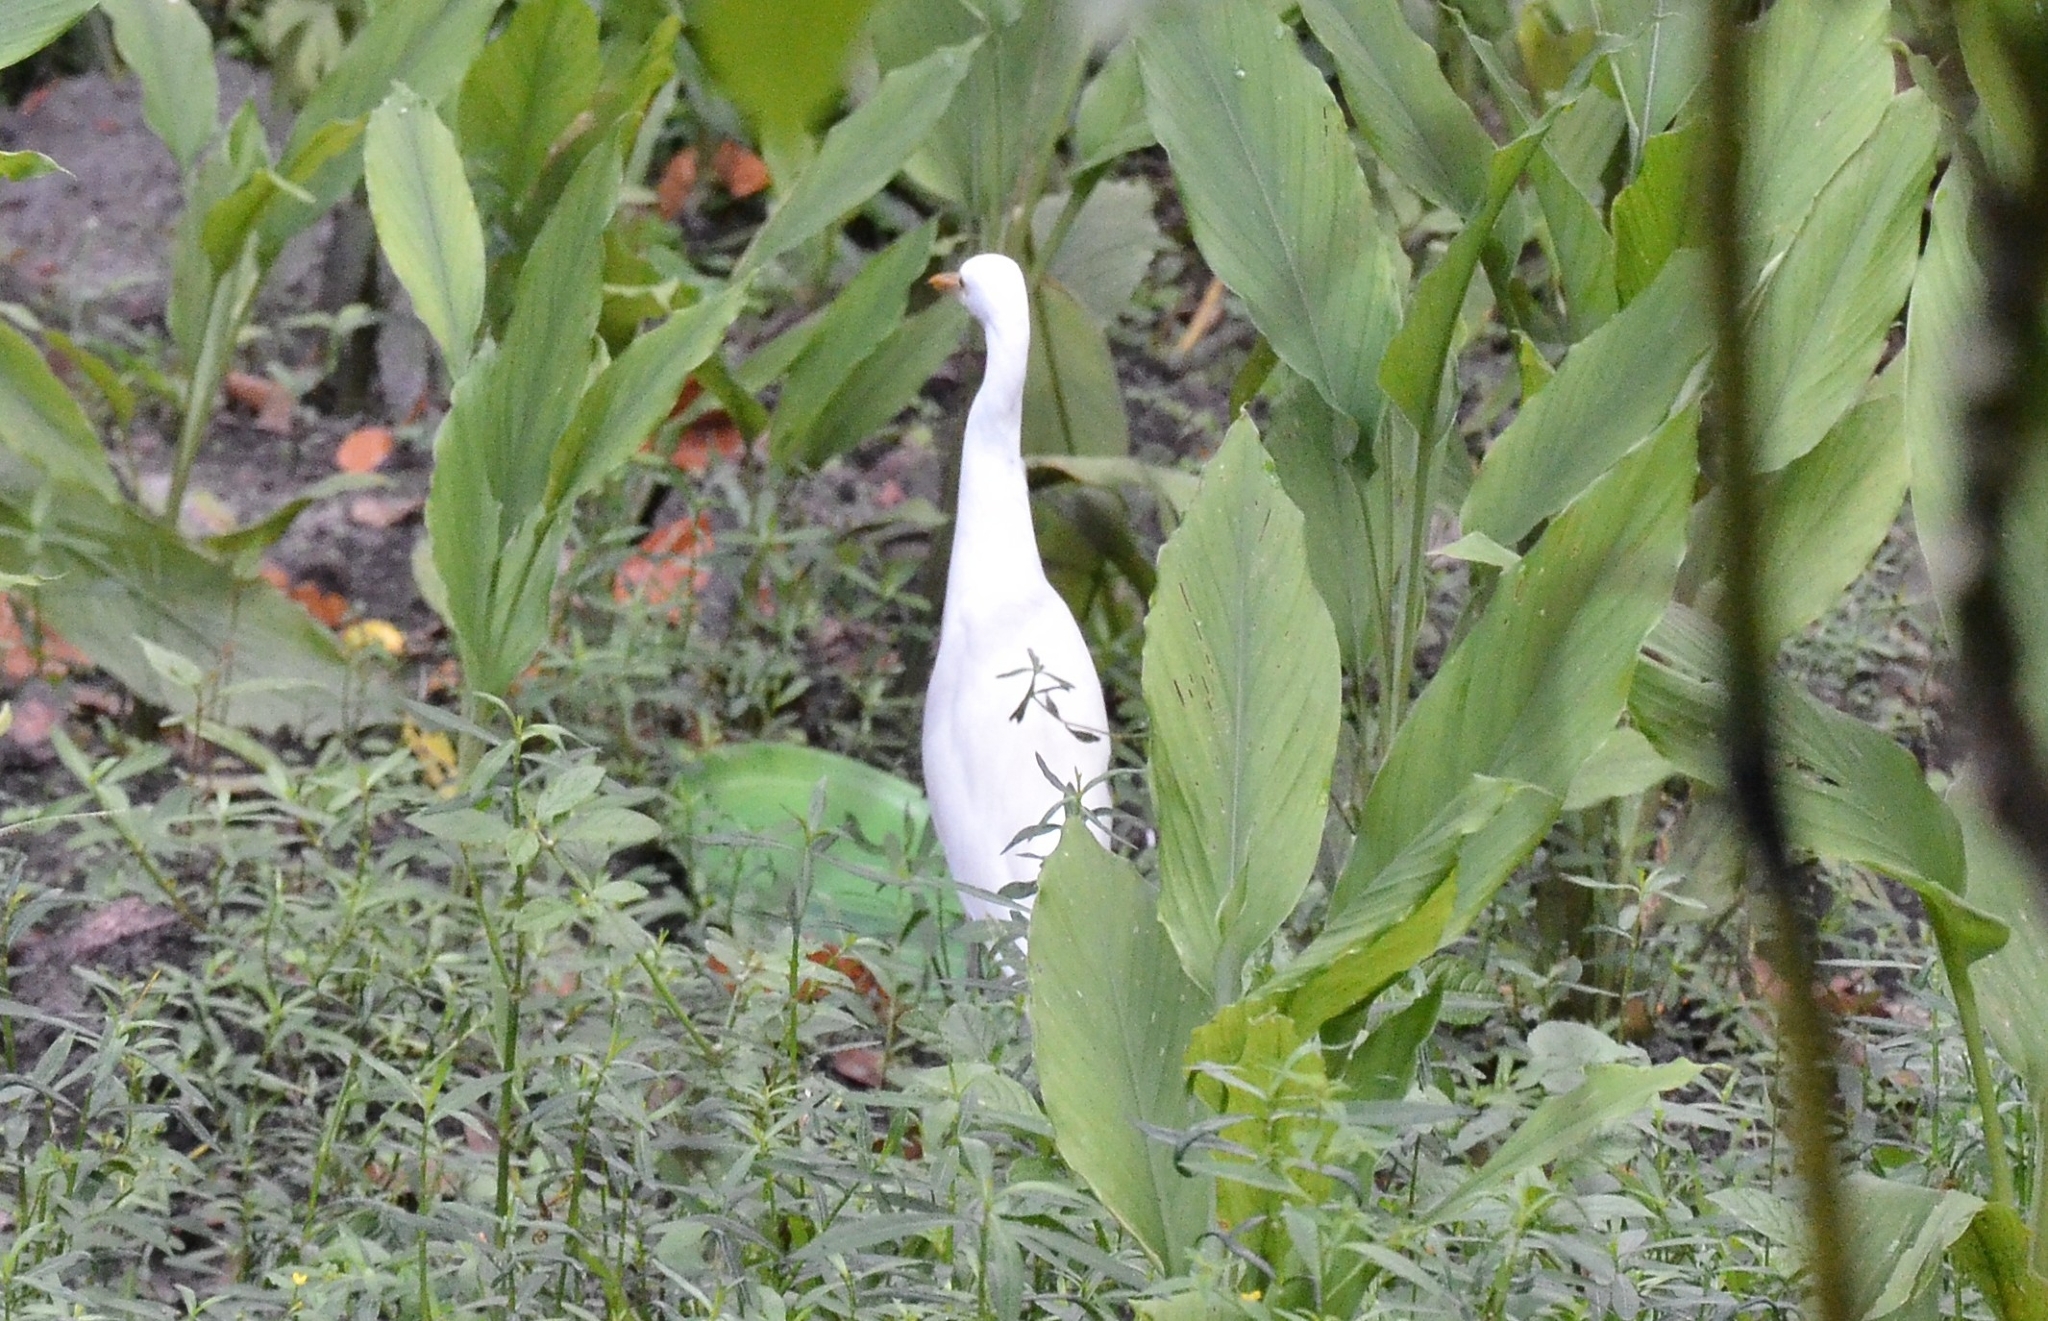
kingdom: Animalia
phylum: Chordata
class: Aves
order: Pelecaniformes
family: Ardeidae
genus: Bubulcus
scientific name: Bubulcus coromandus
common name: Eastern cattle egret
